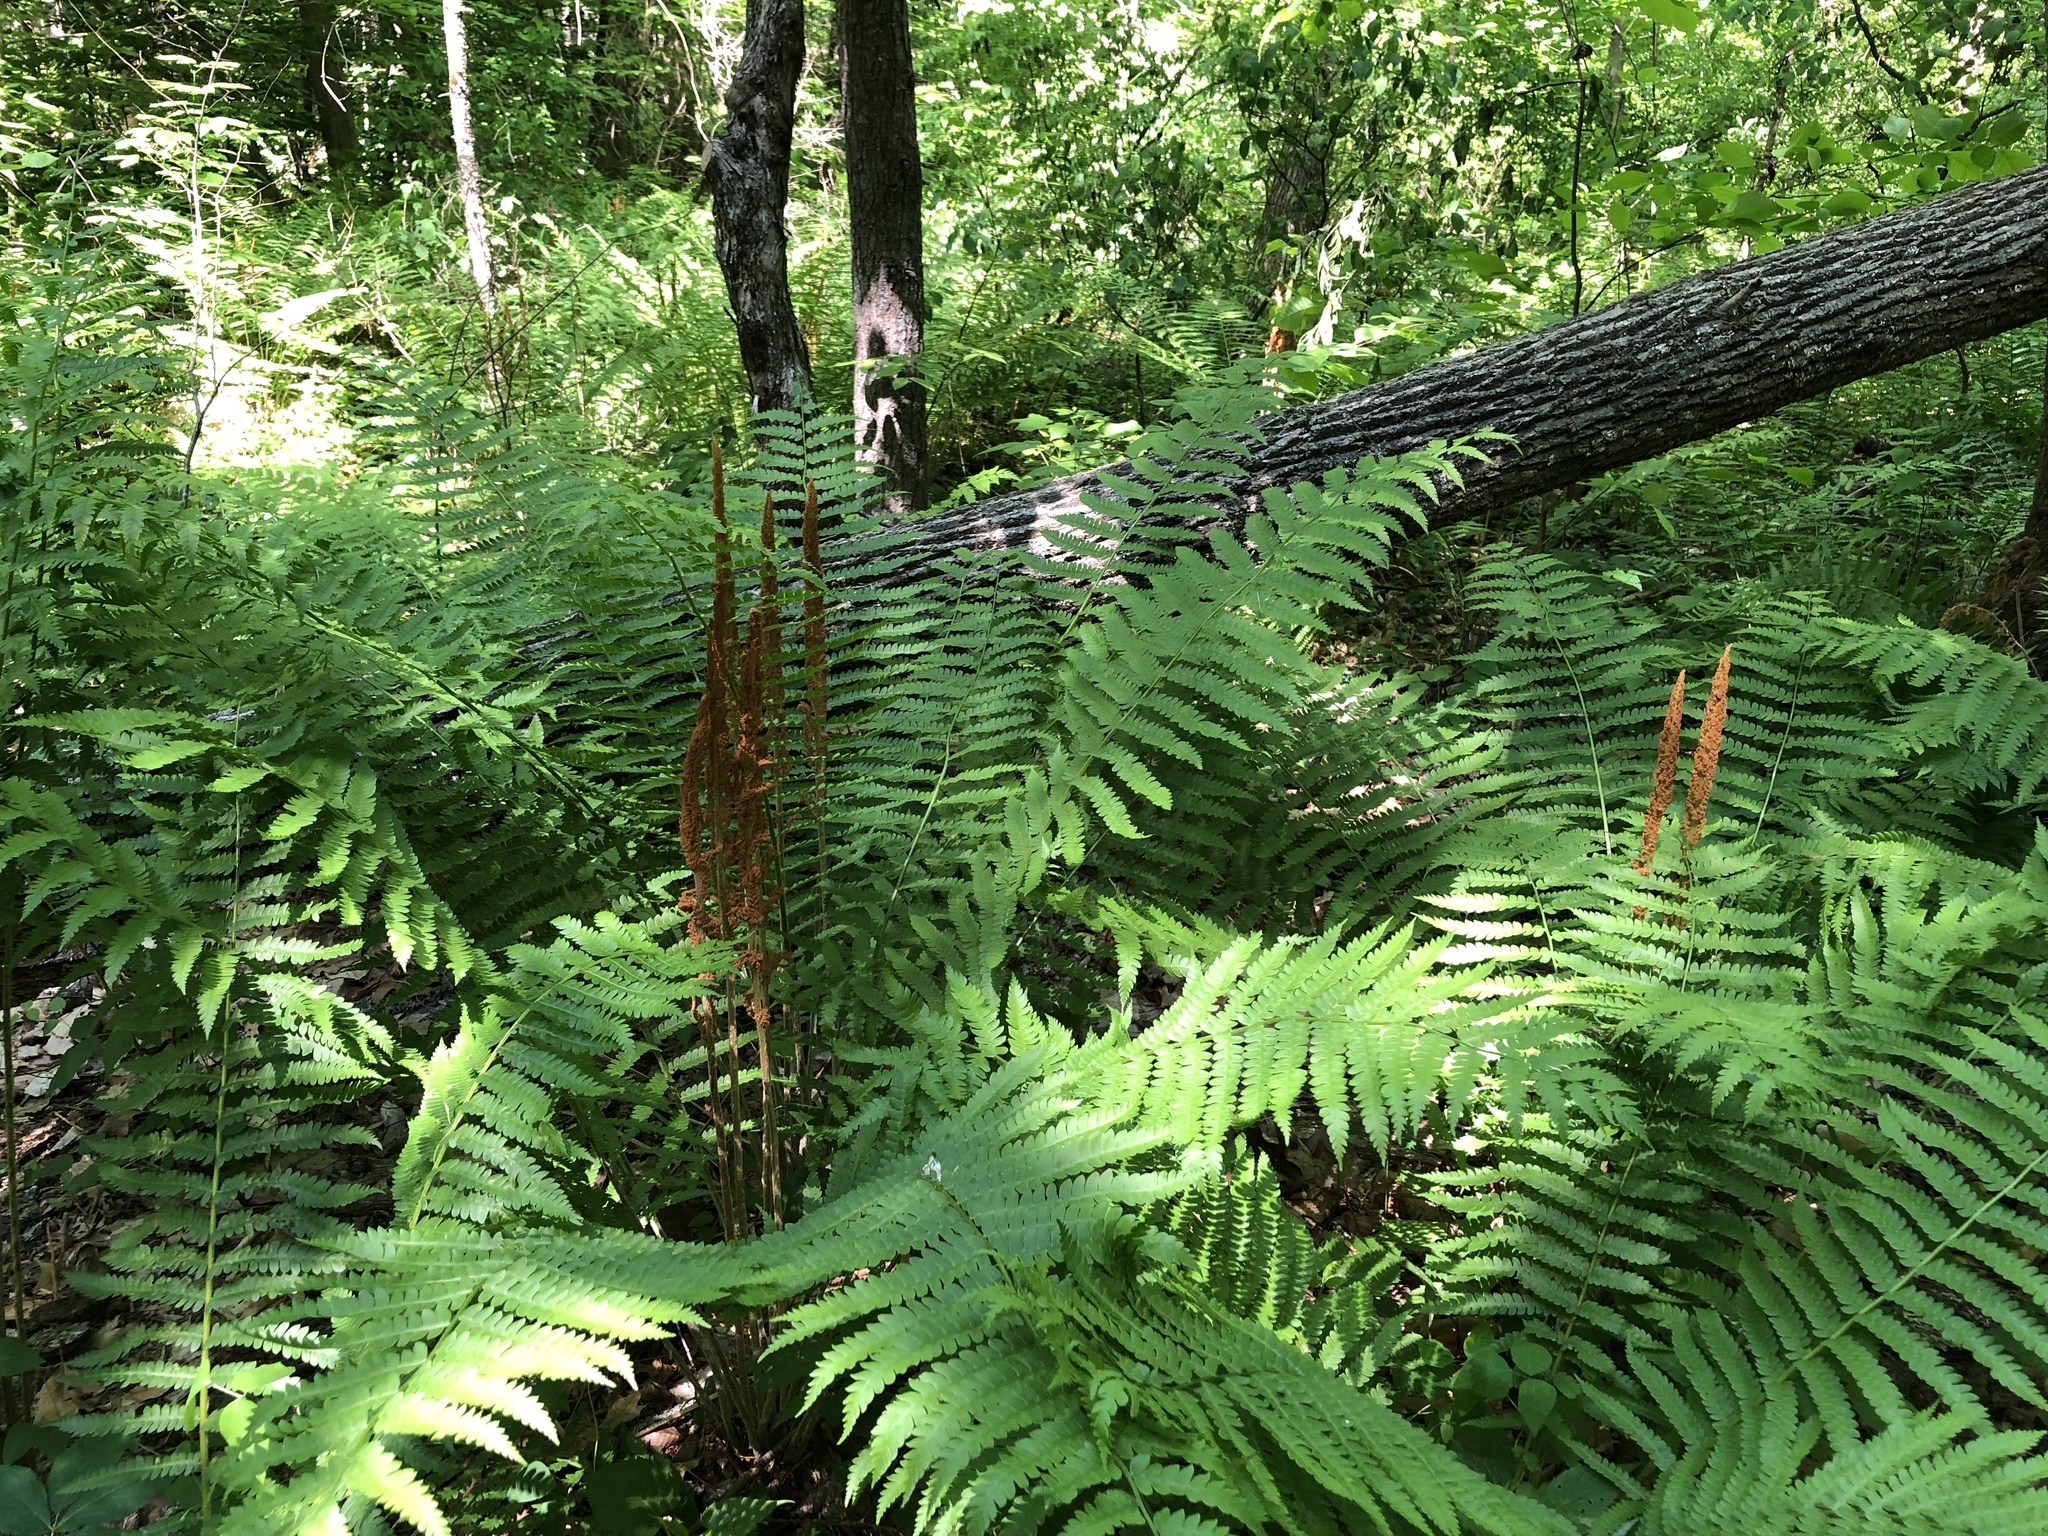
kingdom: Plantae
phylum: Tracheophyta
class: Polypodiopsida
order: Osmundales
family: Osmundaceae
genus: Osmundastrum
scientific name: Osmundastrum cinnamomeum
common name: Cinnamon fern
